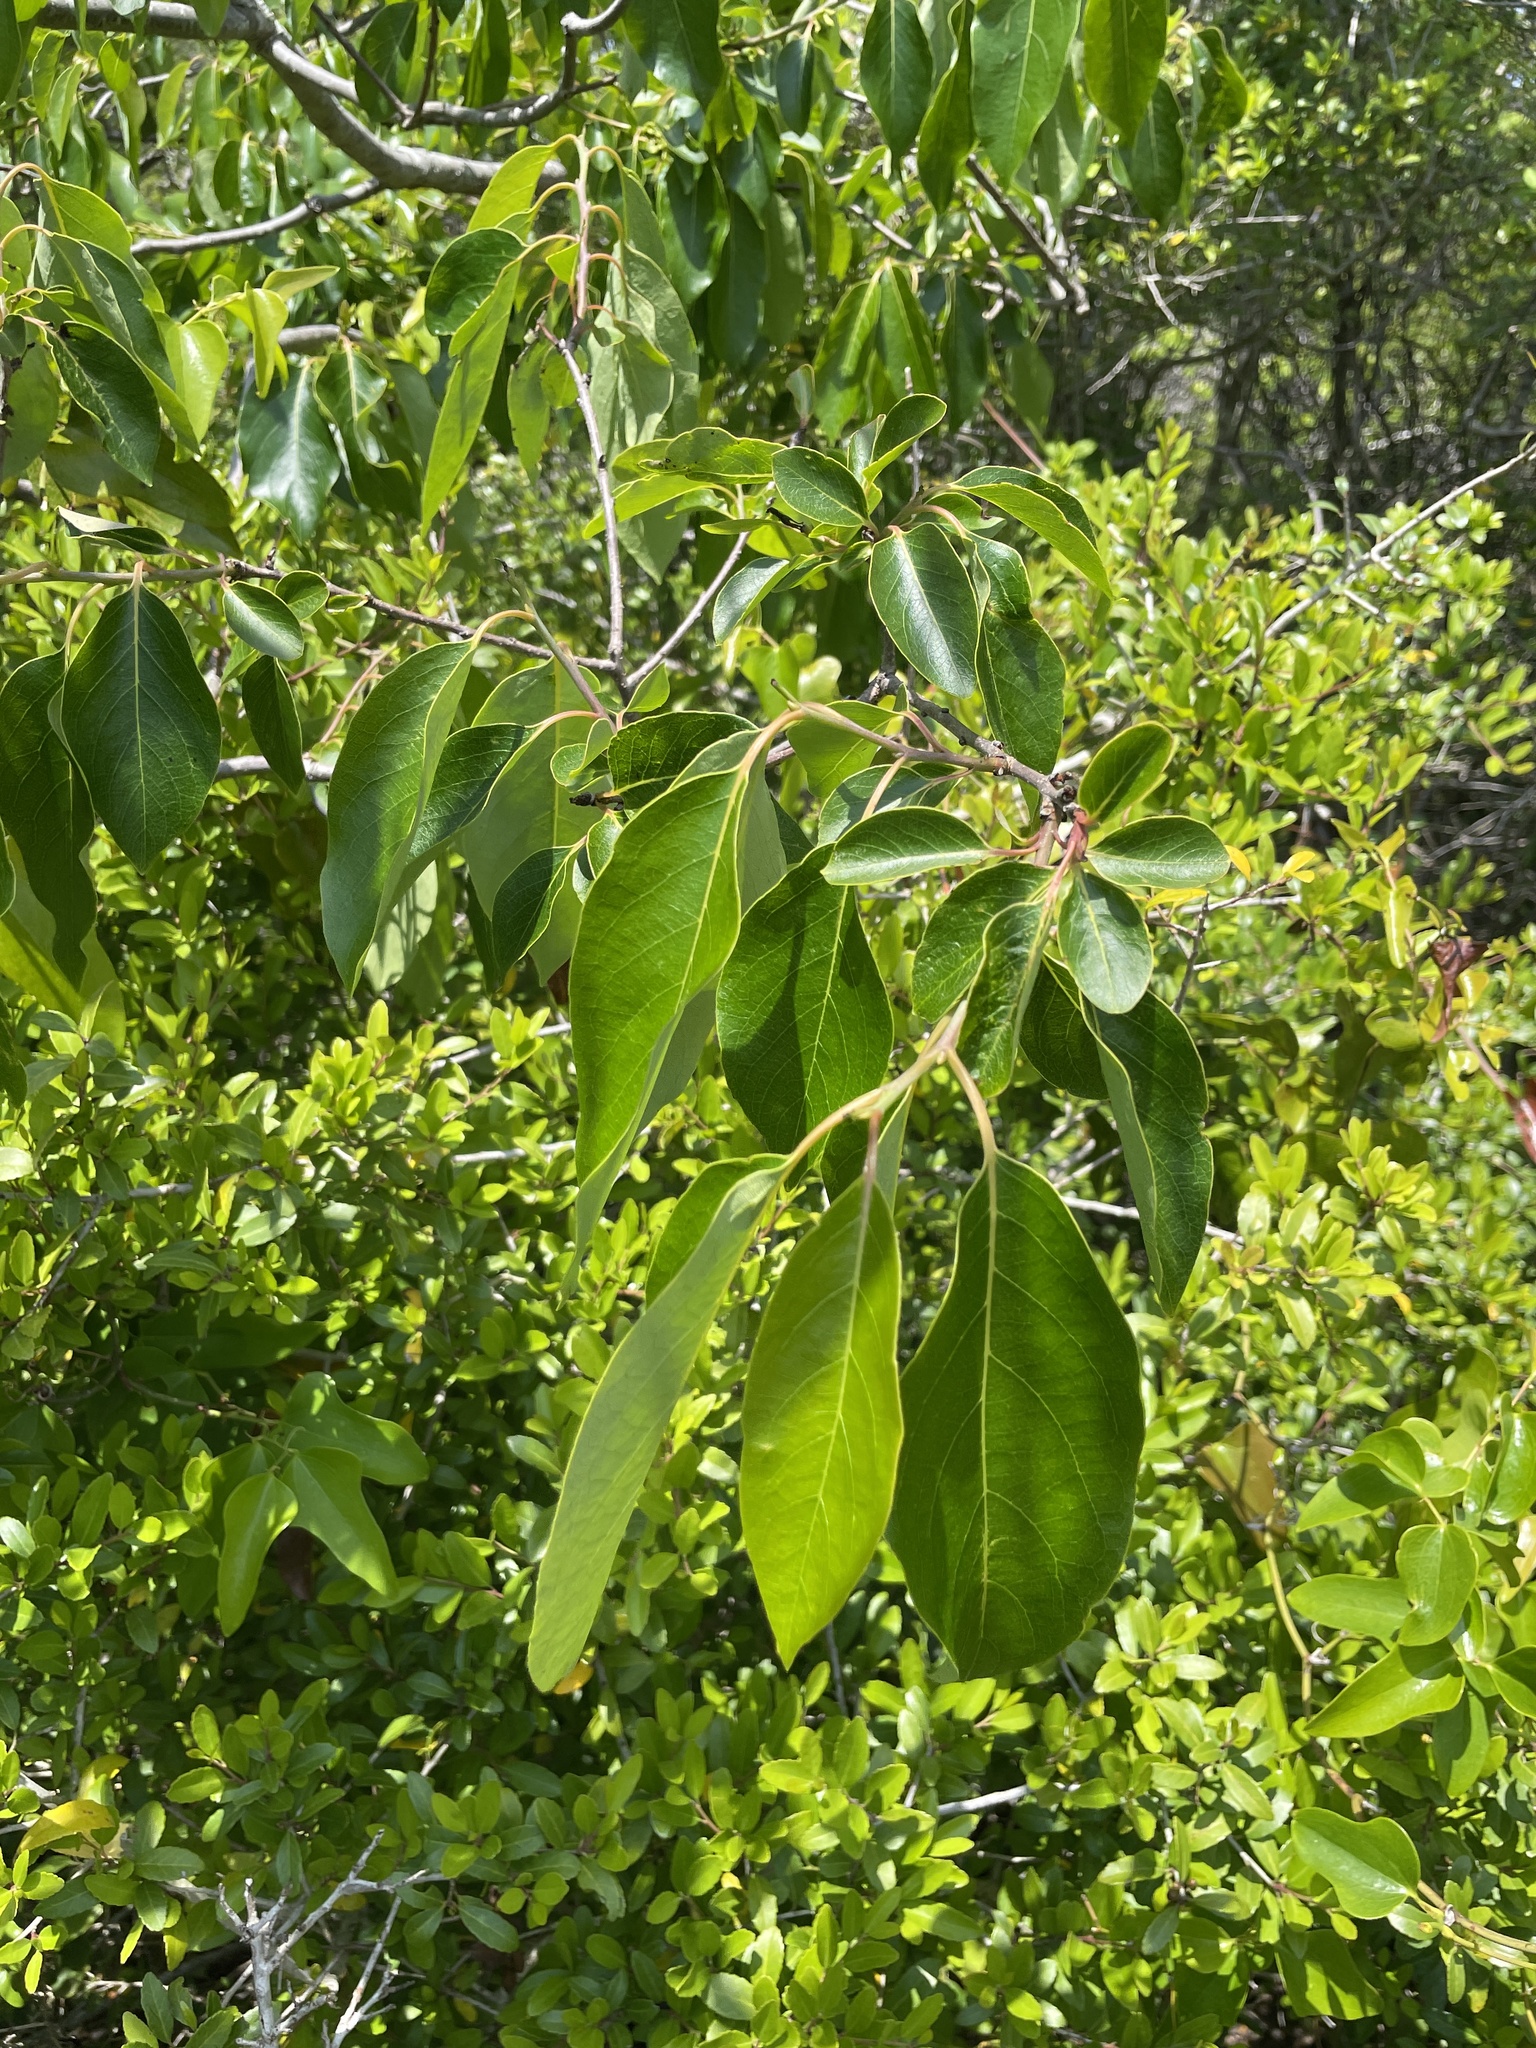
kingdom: Plantae
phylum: Tracheophyta
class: Magnoliopsida
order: Ericales
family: Ebenaceae
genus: Diospyros
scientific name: Diospyros virginiana
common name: Persimmon
